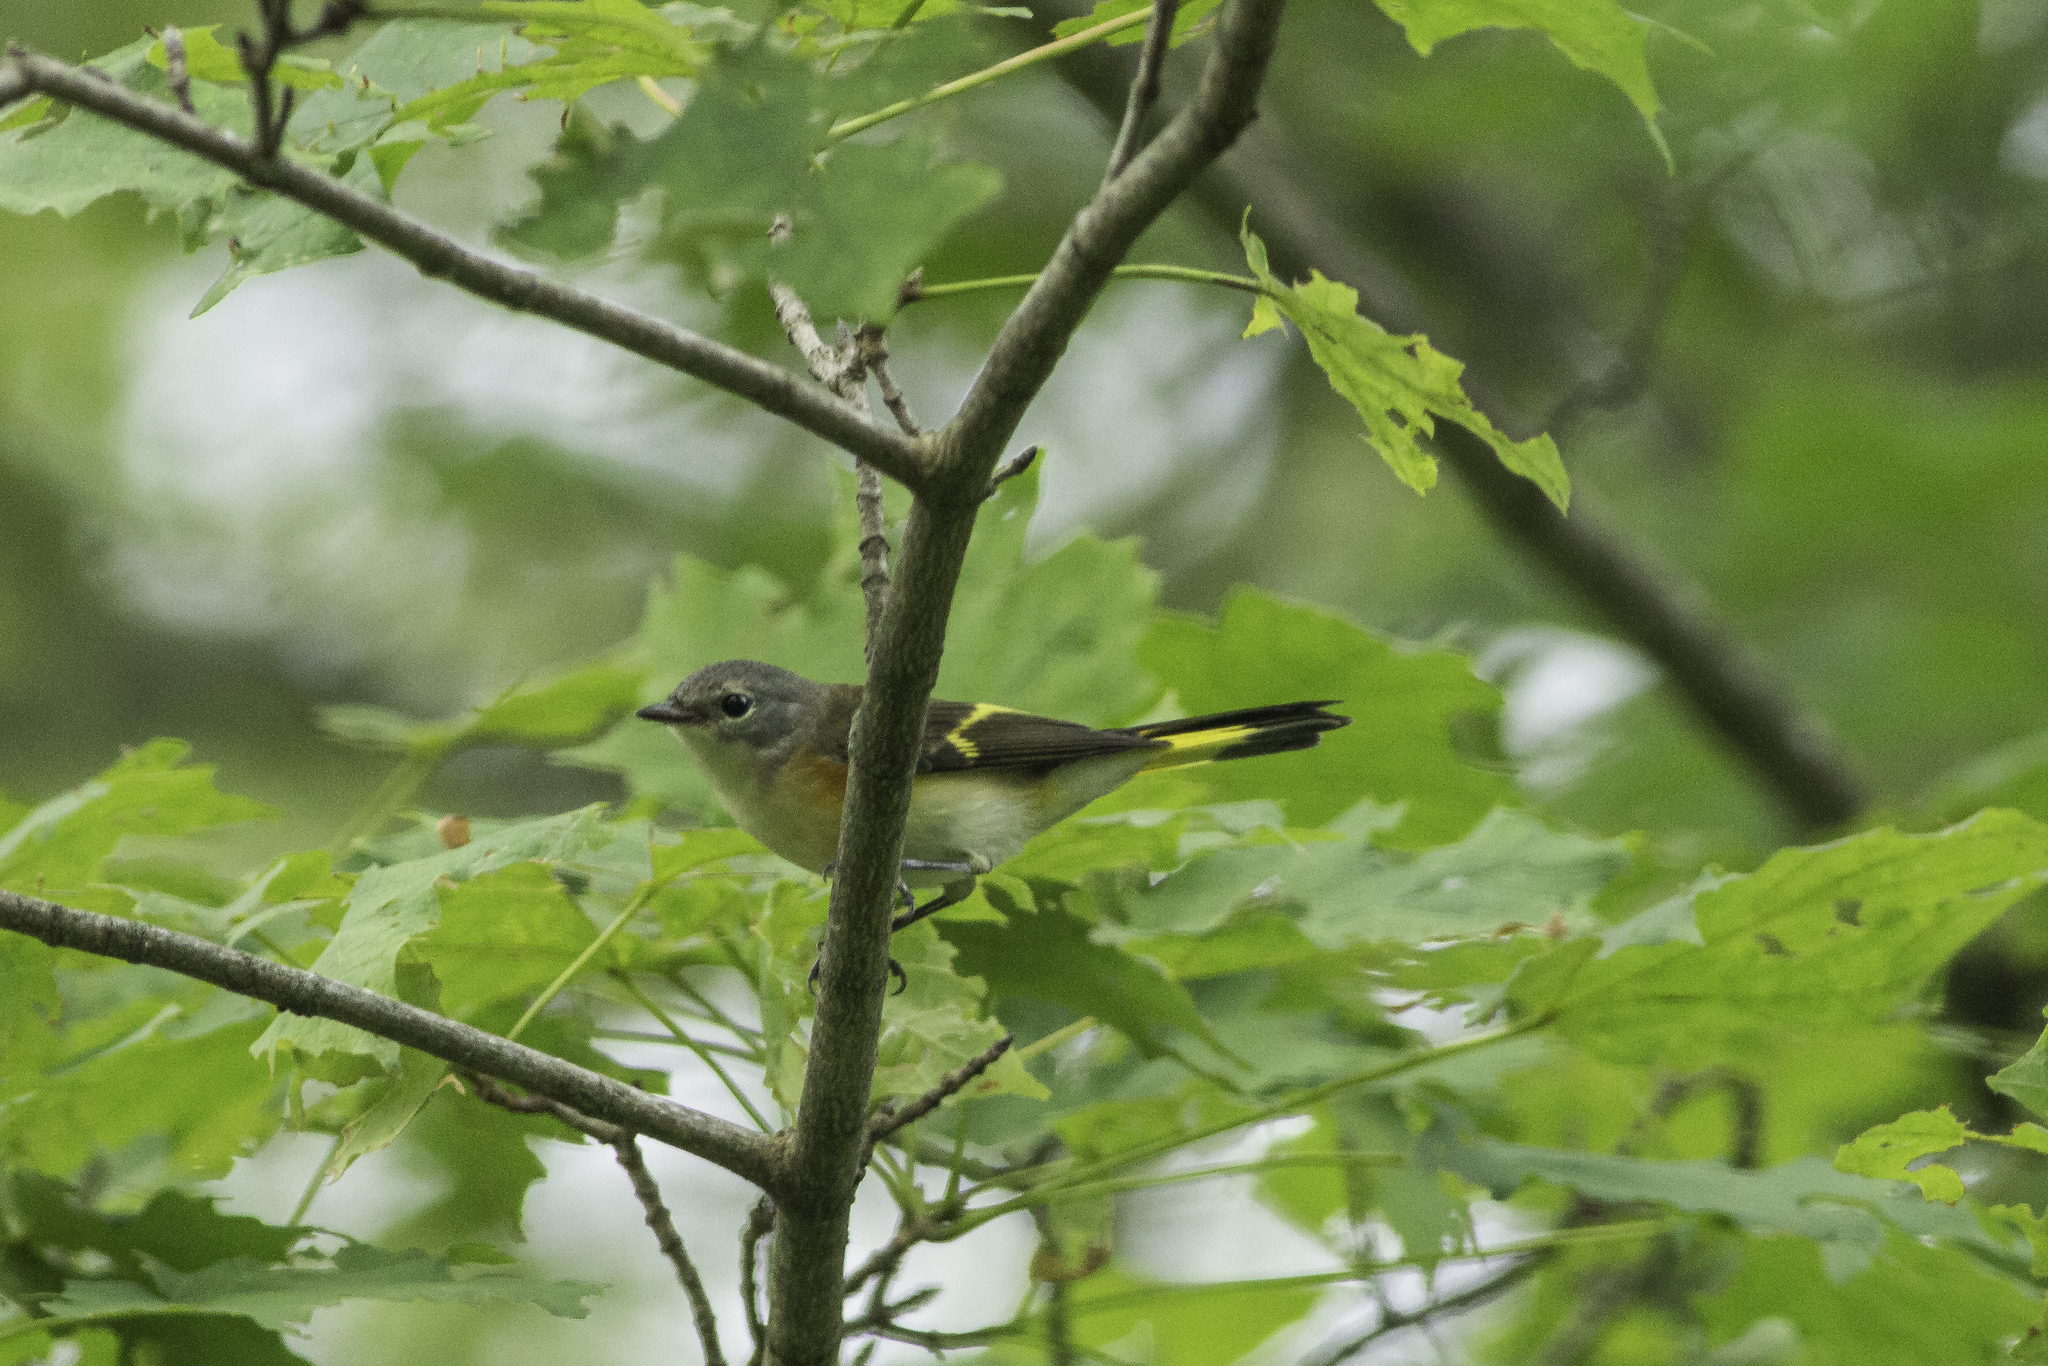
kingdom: Animalia
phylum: Chordata
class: Aves
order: Passeriformes
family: Parulidae
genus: Setophaga
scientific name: Setophaga ruticilla
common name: American redstart
